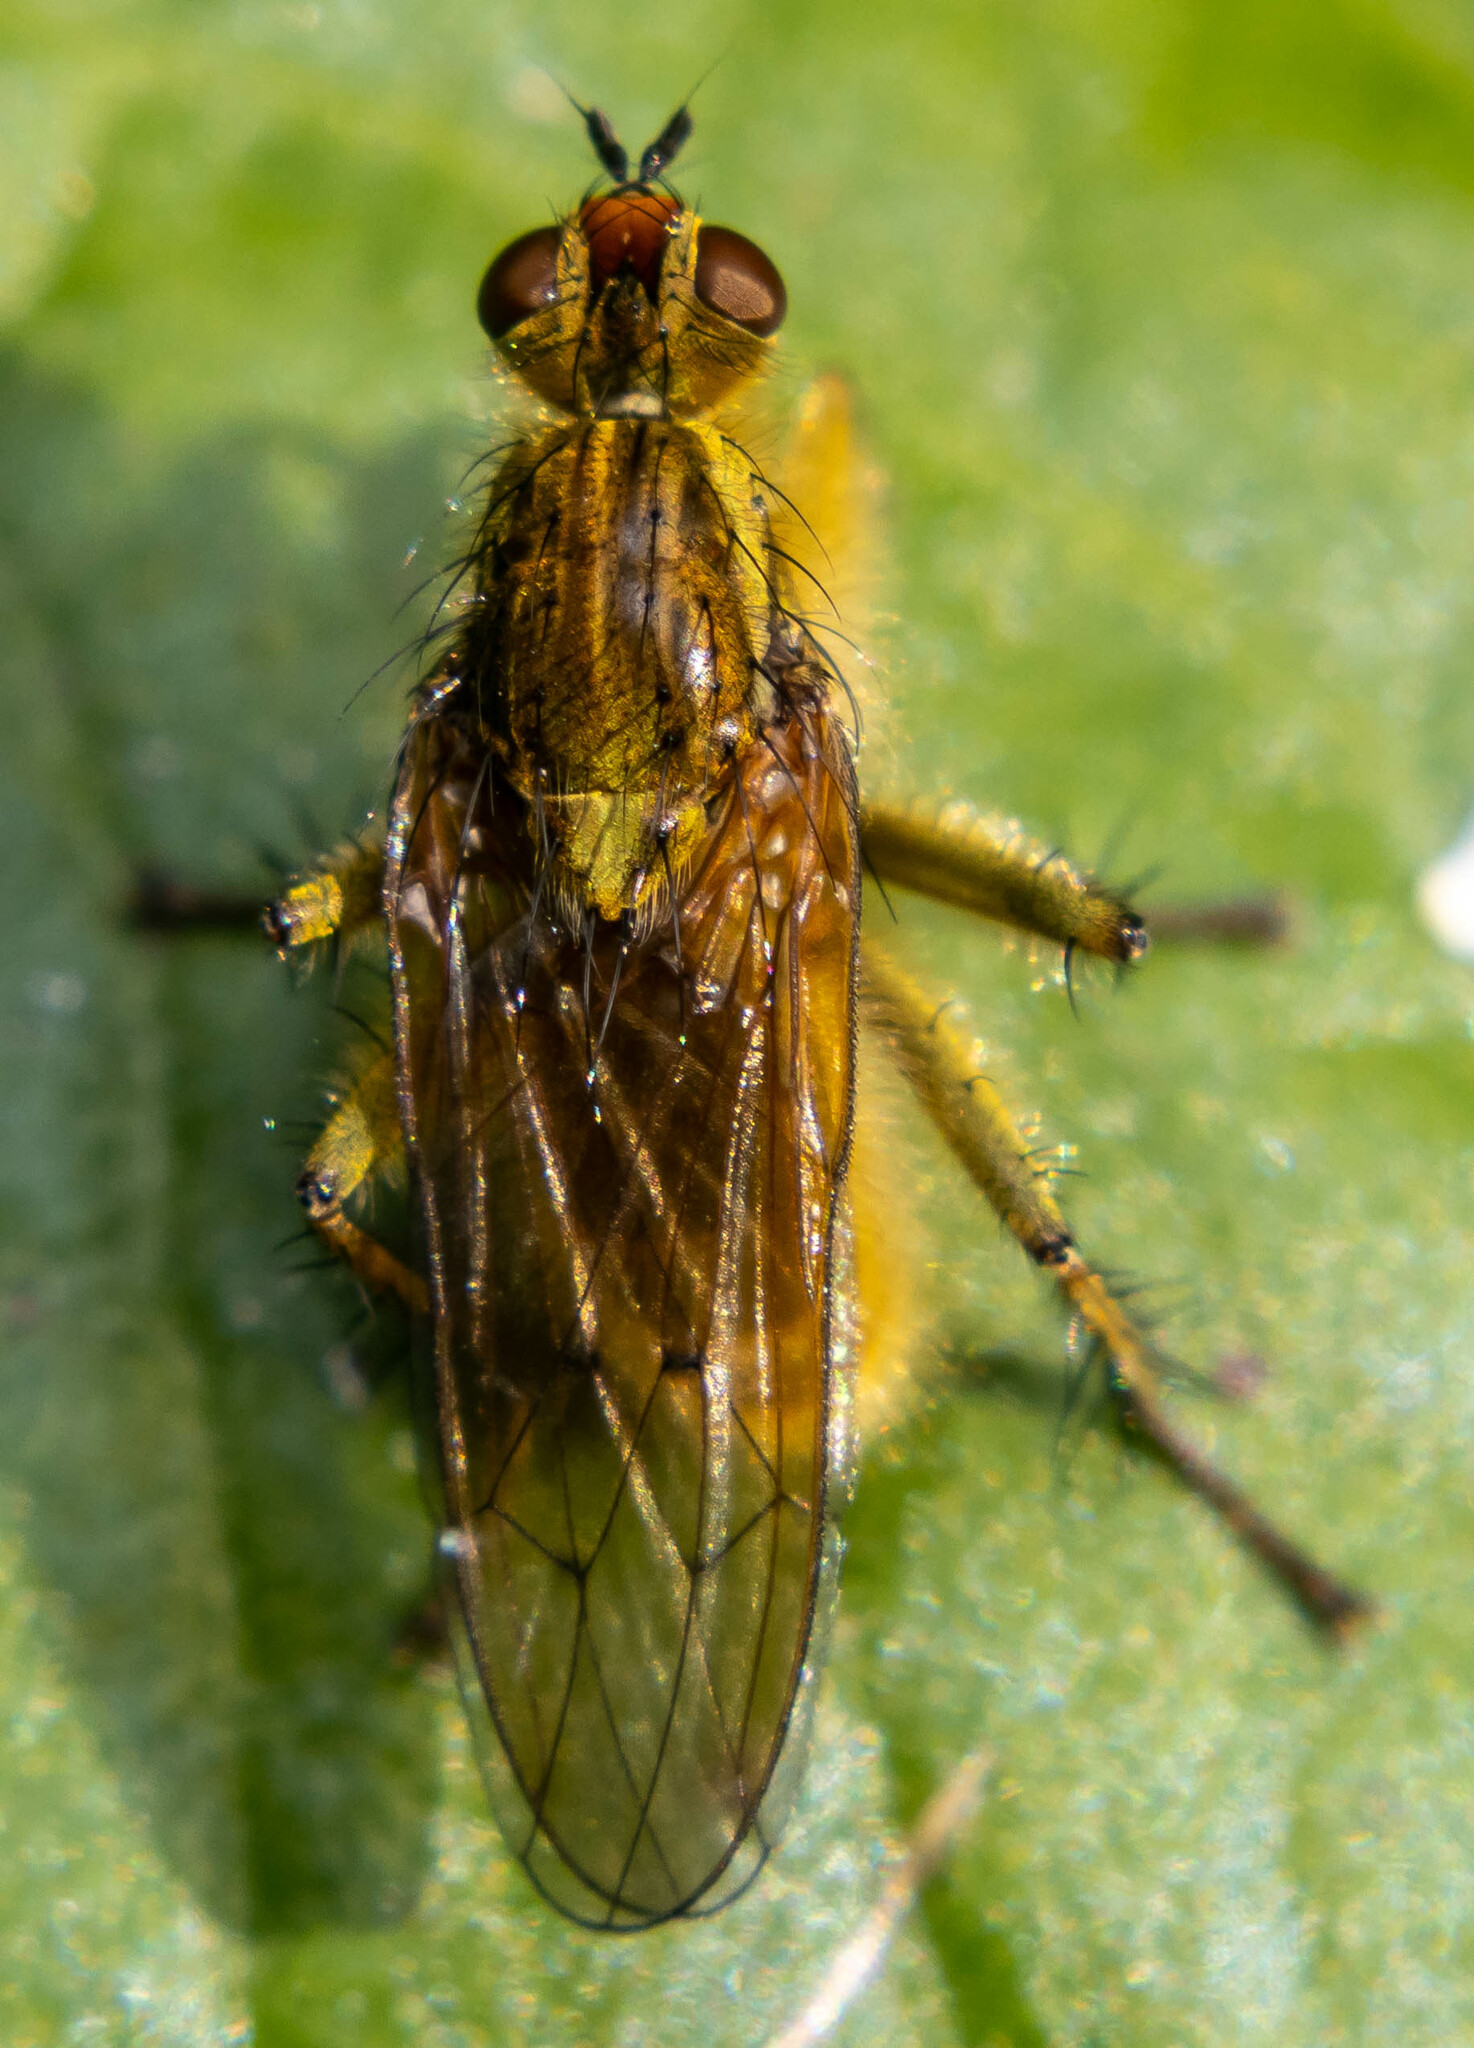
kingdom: Animalia
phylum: Arthropoda
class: Insecta
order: Diptera
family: Scathophagidae
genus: Scathophaga
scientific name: Scathophaga stercoraria
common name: Yellow dung fly
